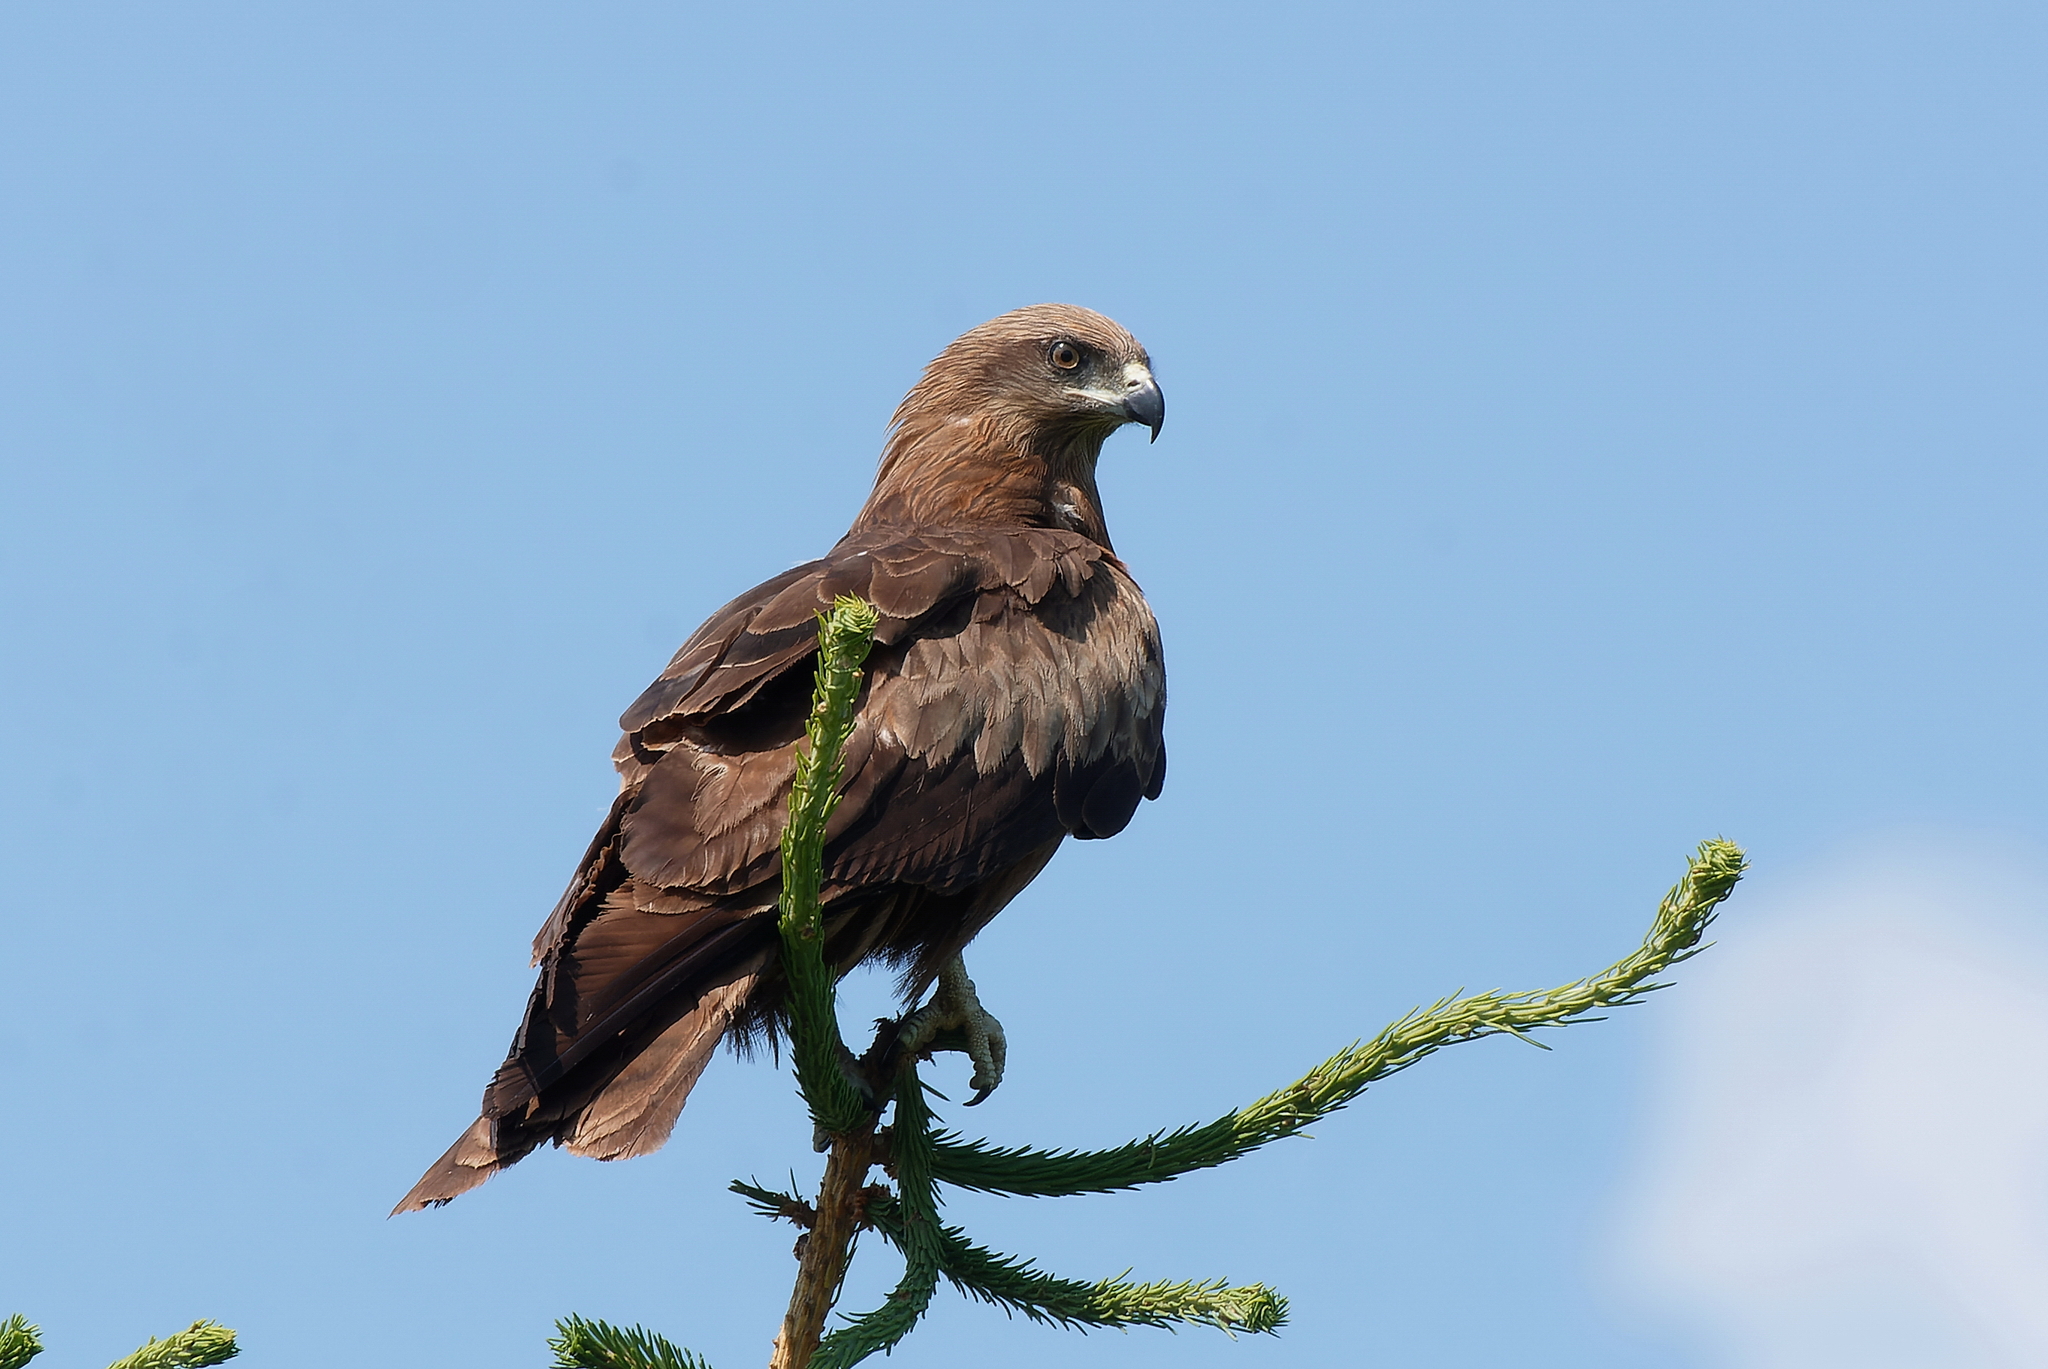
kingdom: Animalia
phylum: Chordata
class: Aves
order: Accipitriformes
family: Accipitridae
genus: Milvus
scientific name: Milvus migrans
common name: Black kite
